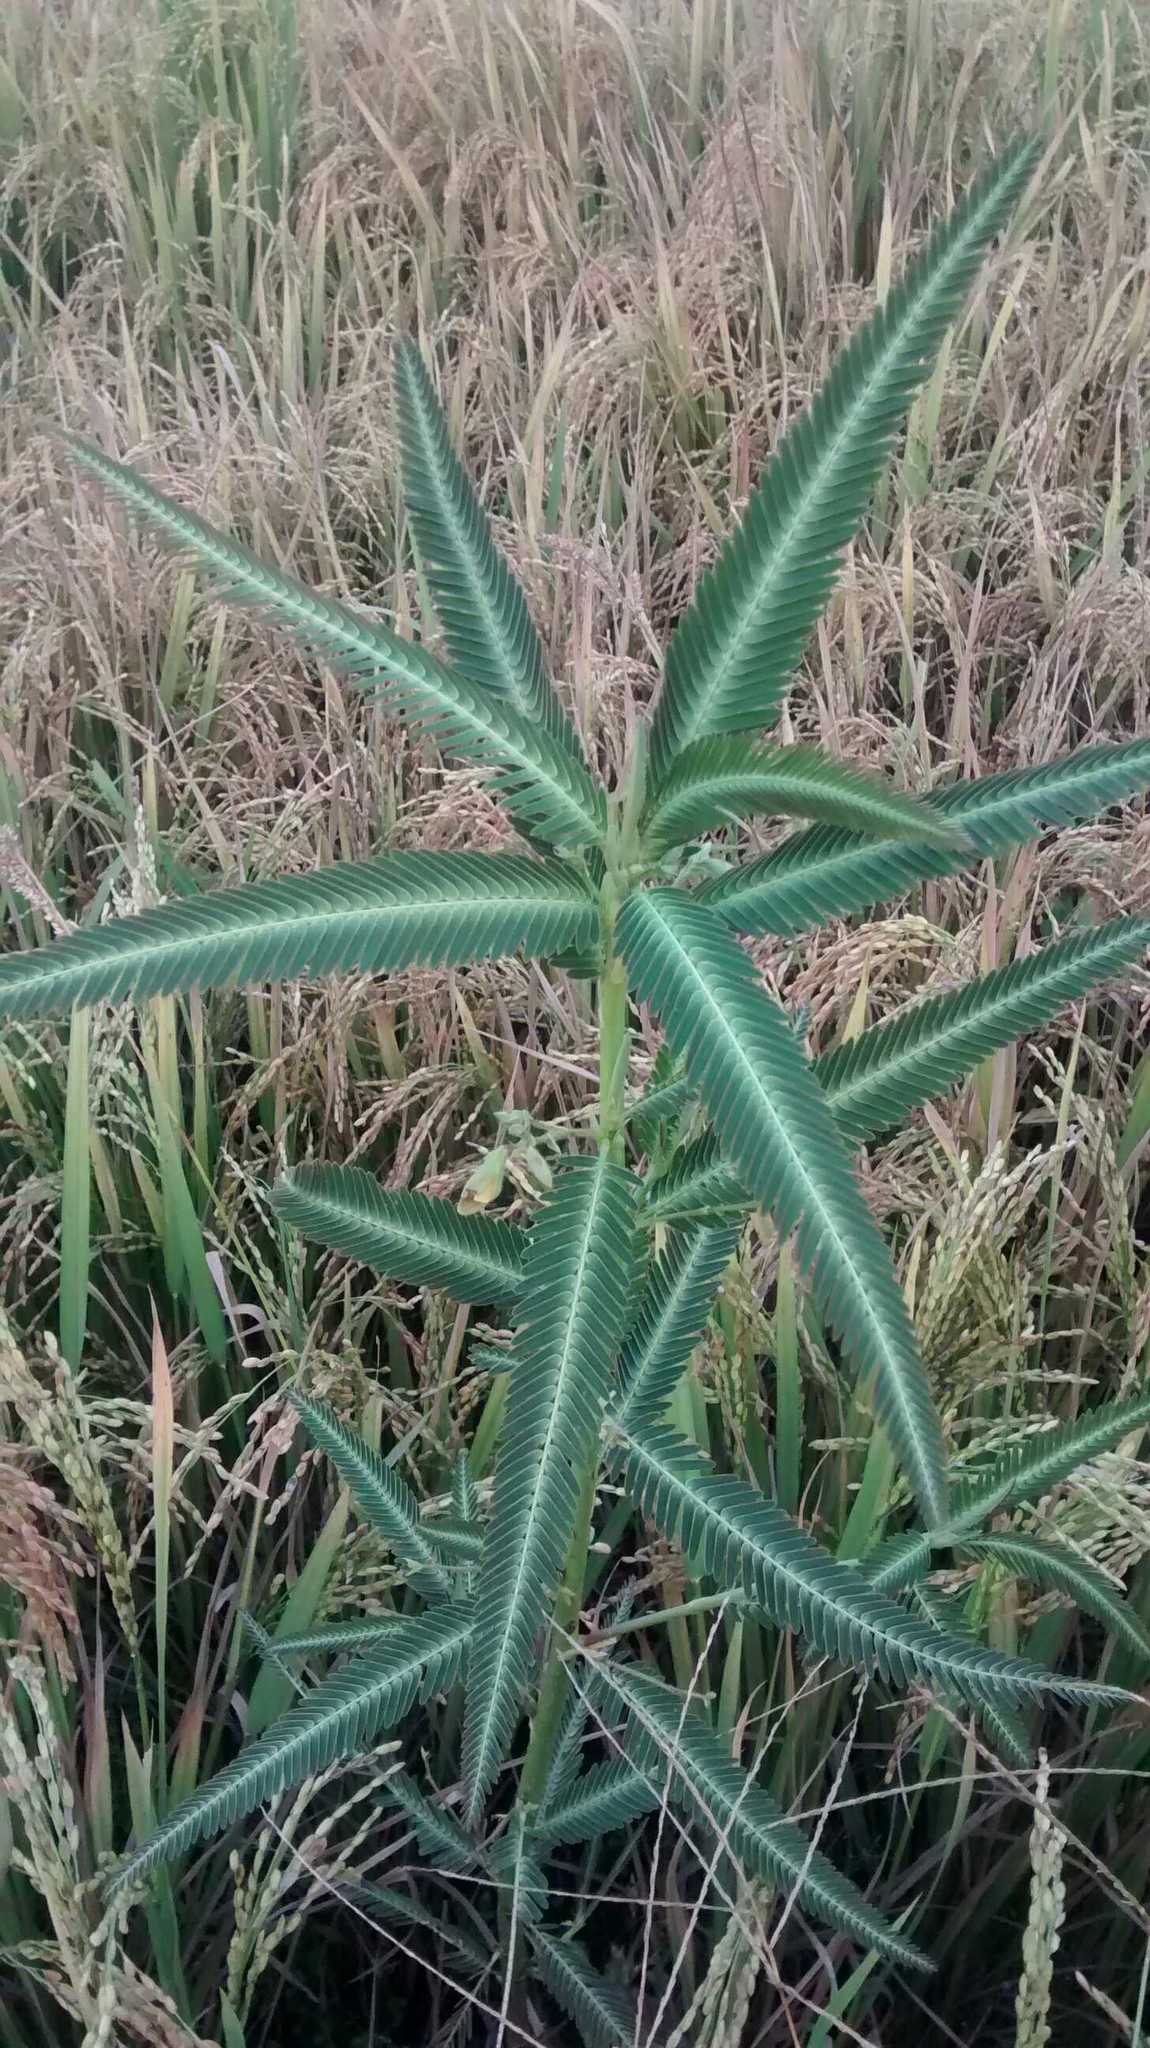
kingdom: Plantae
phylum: Tracheophyta
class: Magnoliopsida
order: Fabales
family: Fabaceae
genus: Aeschynomene
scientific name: Aeschynomene aspera
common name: Pith plant
